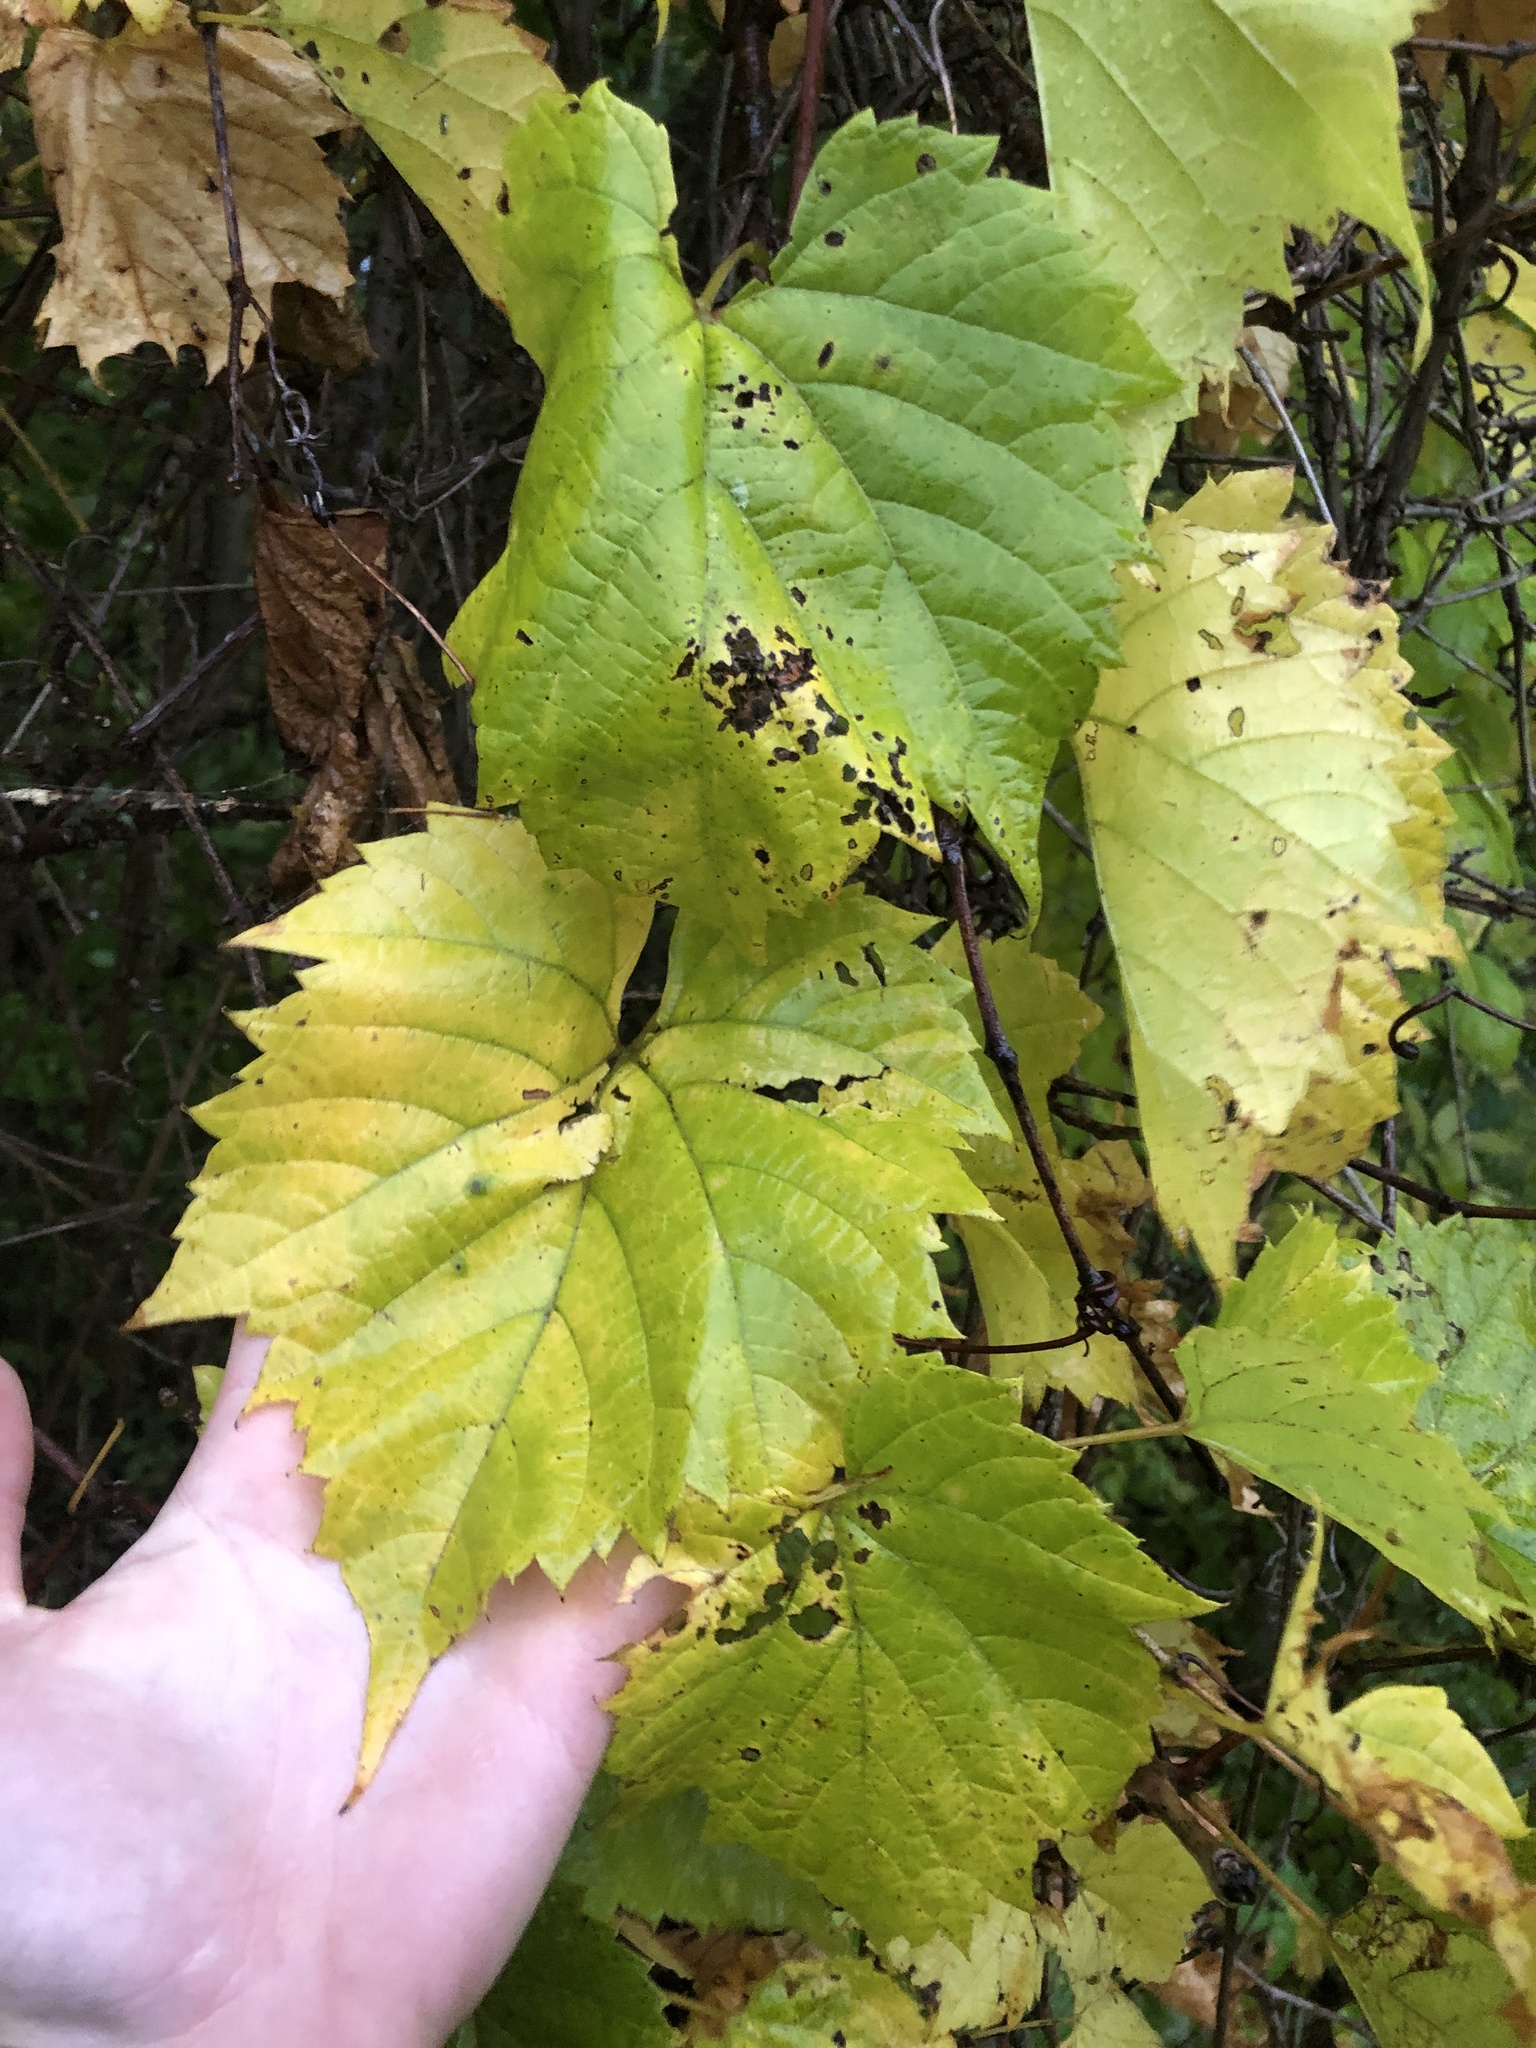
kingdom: Plantae
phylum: Tracheophyta
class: Magnoliopsida
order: Vitales
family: Vitaceae
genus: Vitis
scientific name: Vitis riparia
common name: Frost grape
